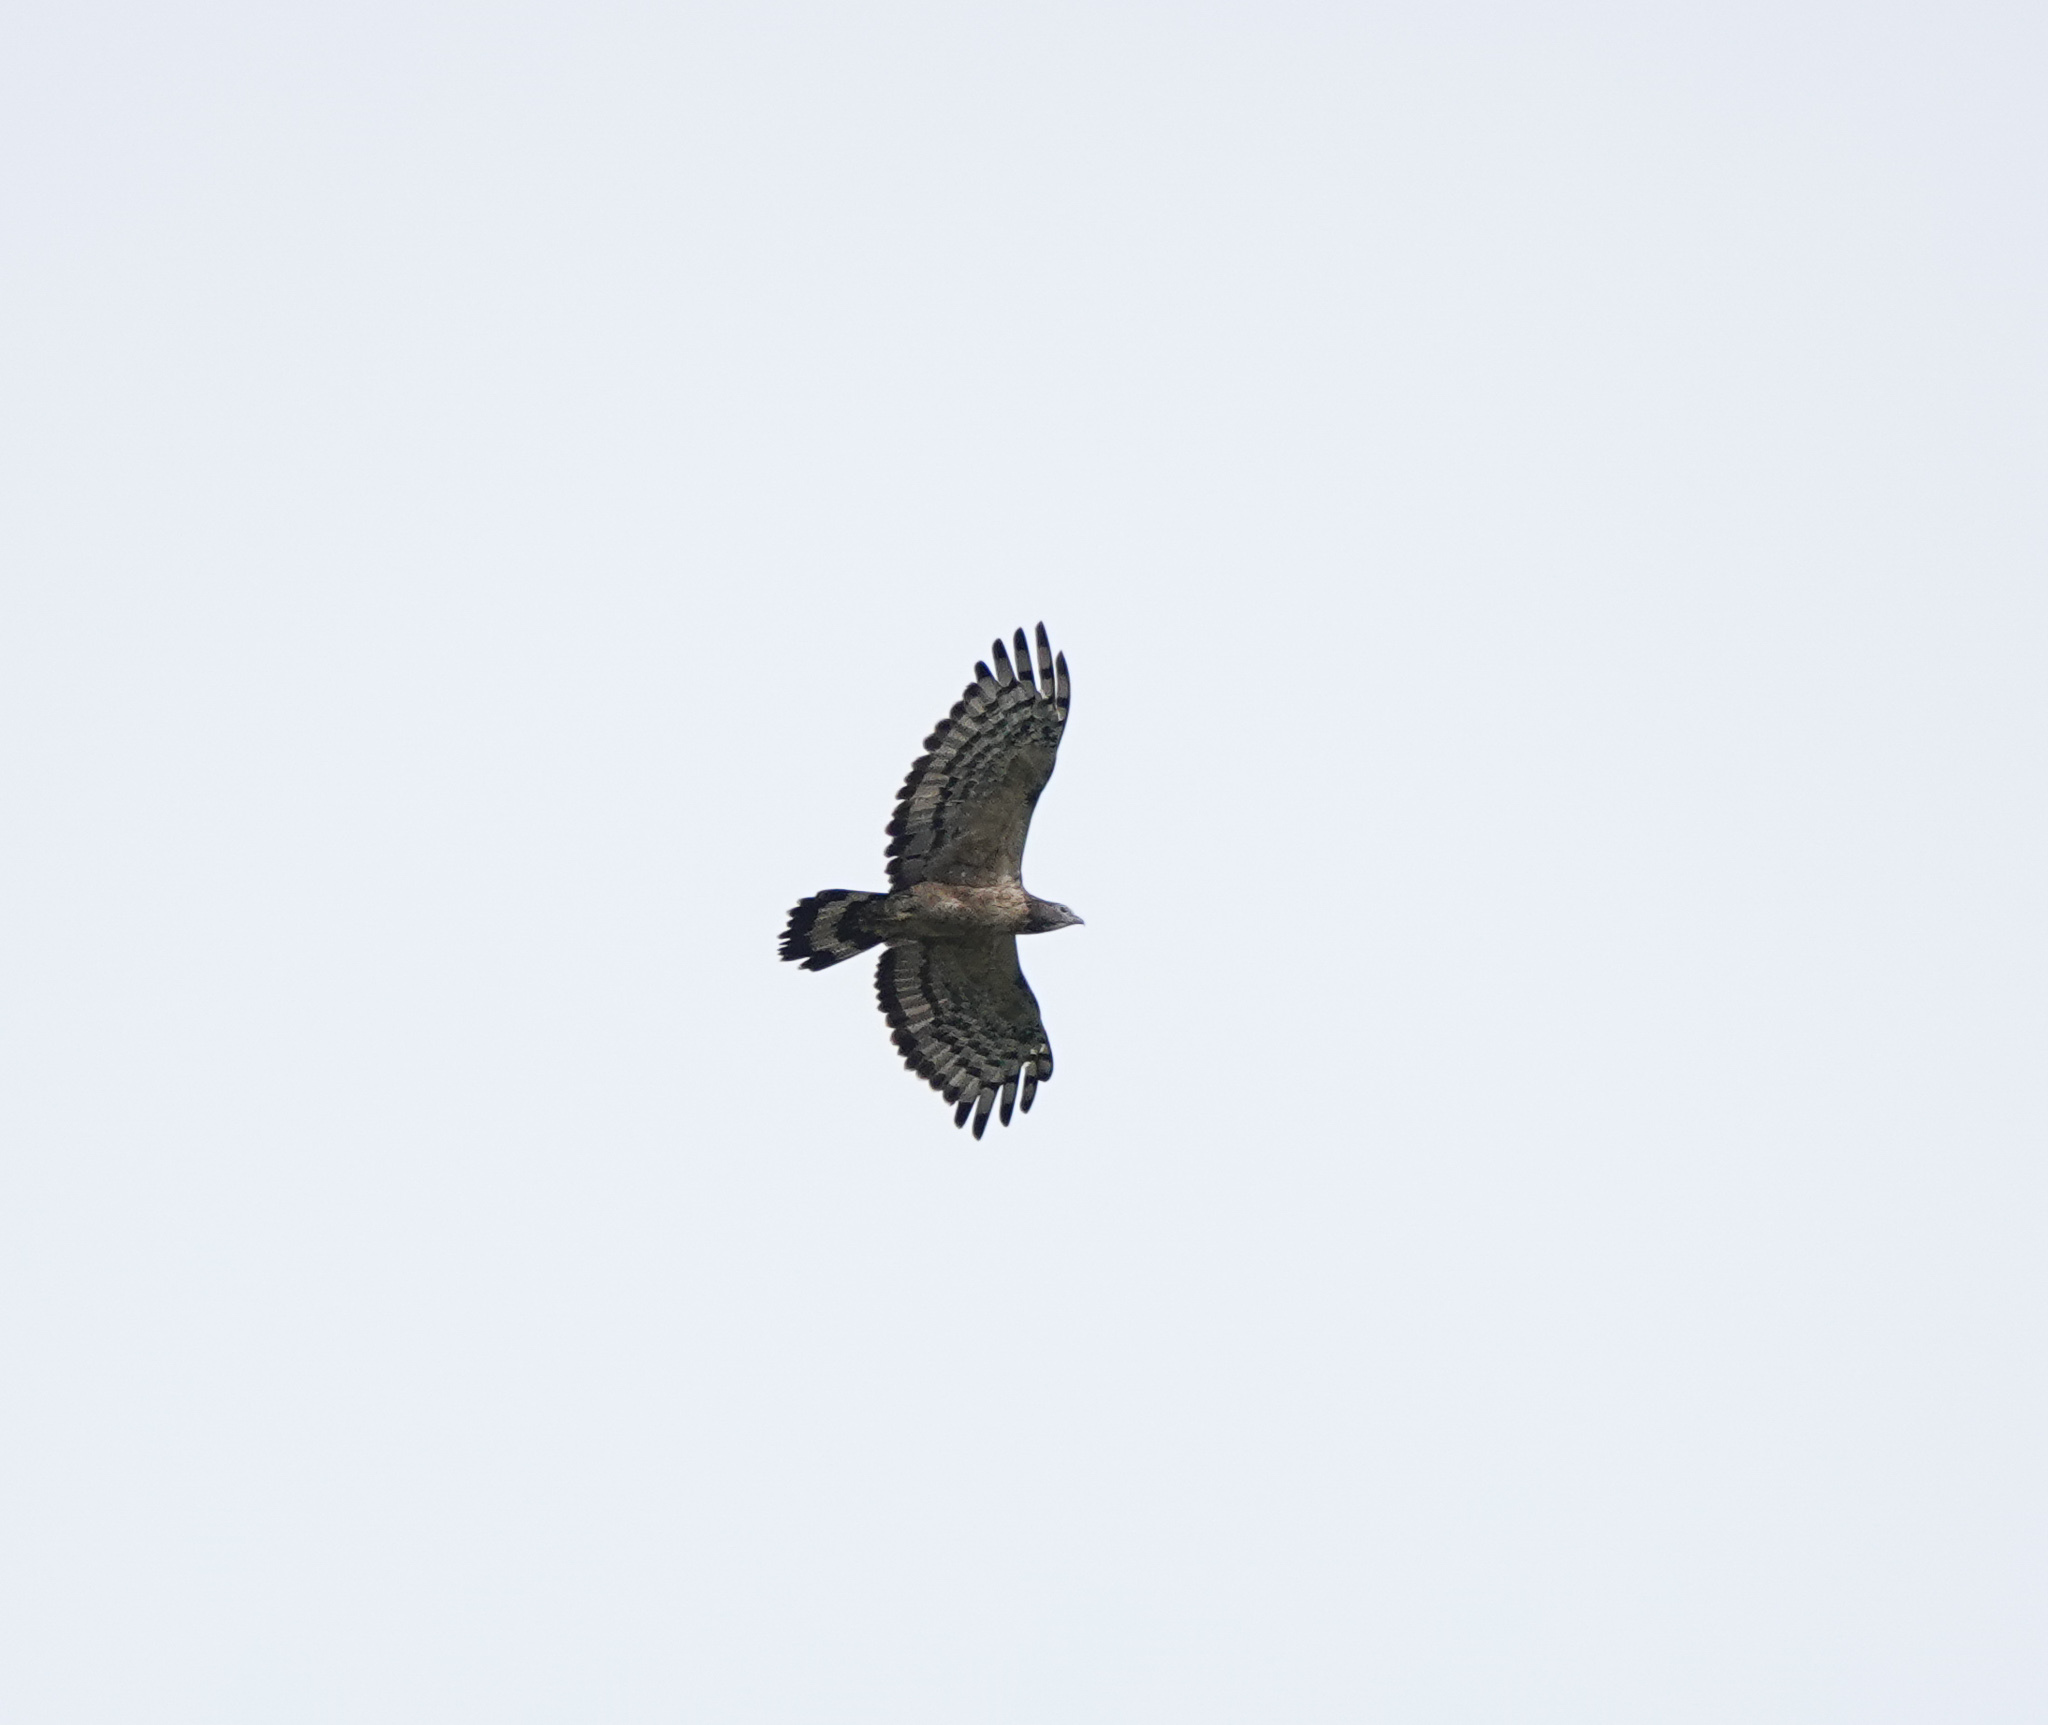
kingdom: Animalia
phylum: Chordata
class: Aves
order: Accipitriformes
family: Accipitridae
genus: Pernis
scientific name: Pernis ptilorhynchus
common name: Crested honey buzzard
